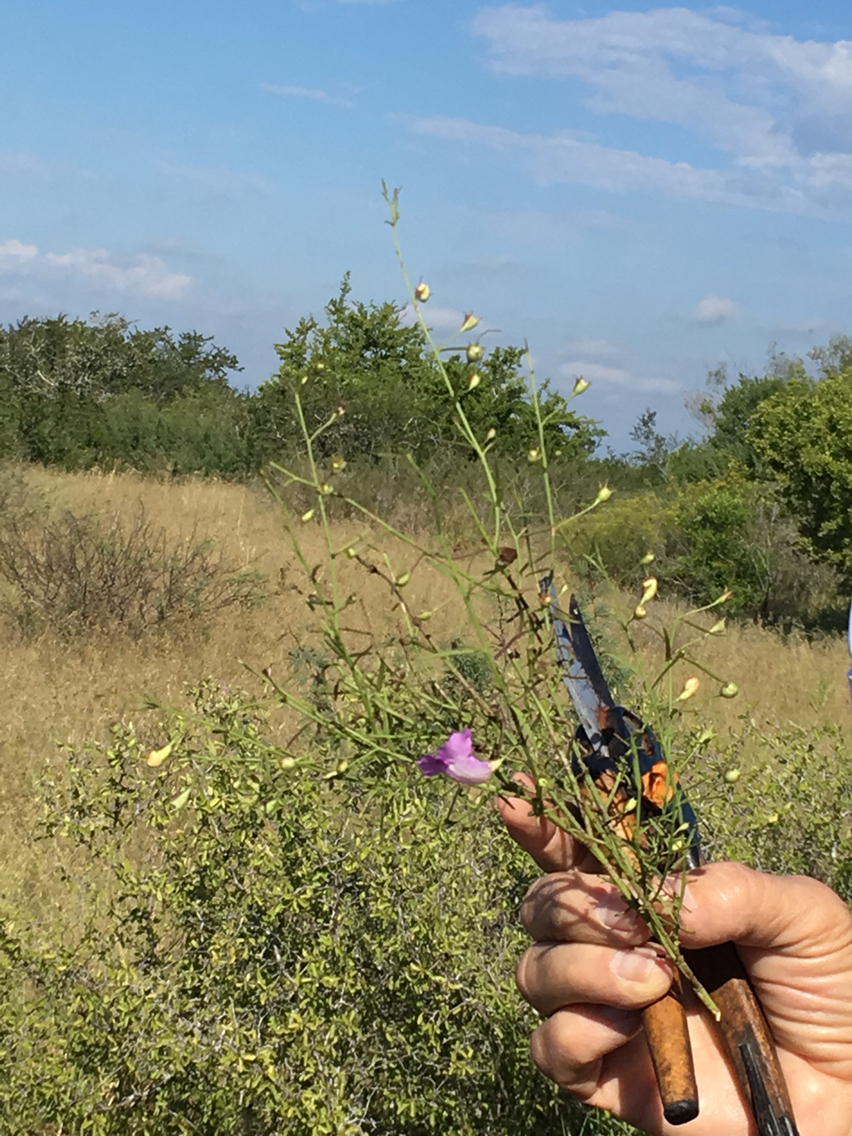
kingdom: Plantae
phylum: Tracheophyta
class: Magnoliopsida
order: Lamiales
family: Orobanchaceae
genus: Agalinis
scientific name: Agalinis strictifolia
